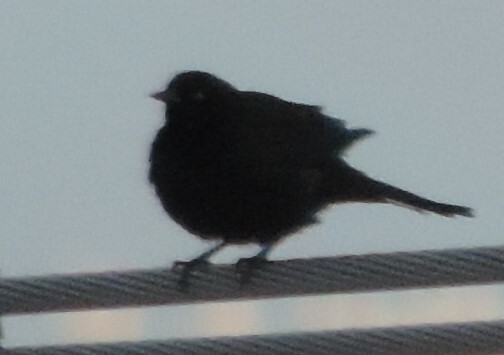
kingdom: Animalia
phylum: Chordata
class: Aves
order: Passeriformes
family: Icteridae
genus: Euphagus
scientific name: Euphagus cyanocephalus
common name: Brewer's blackbird
